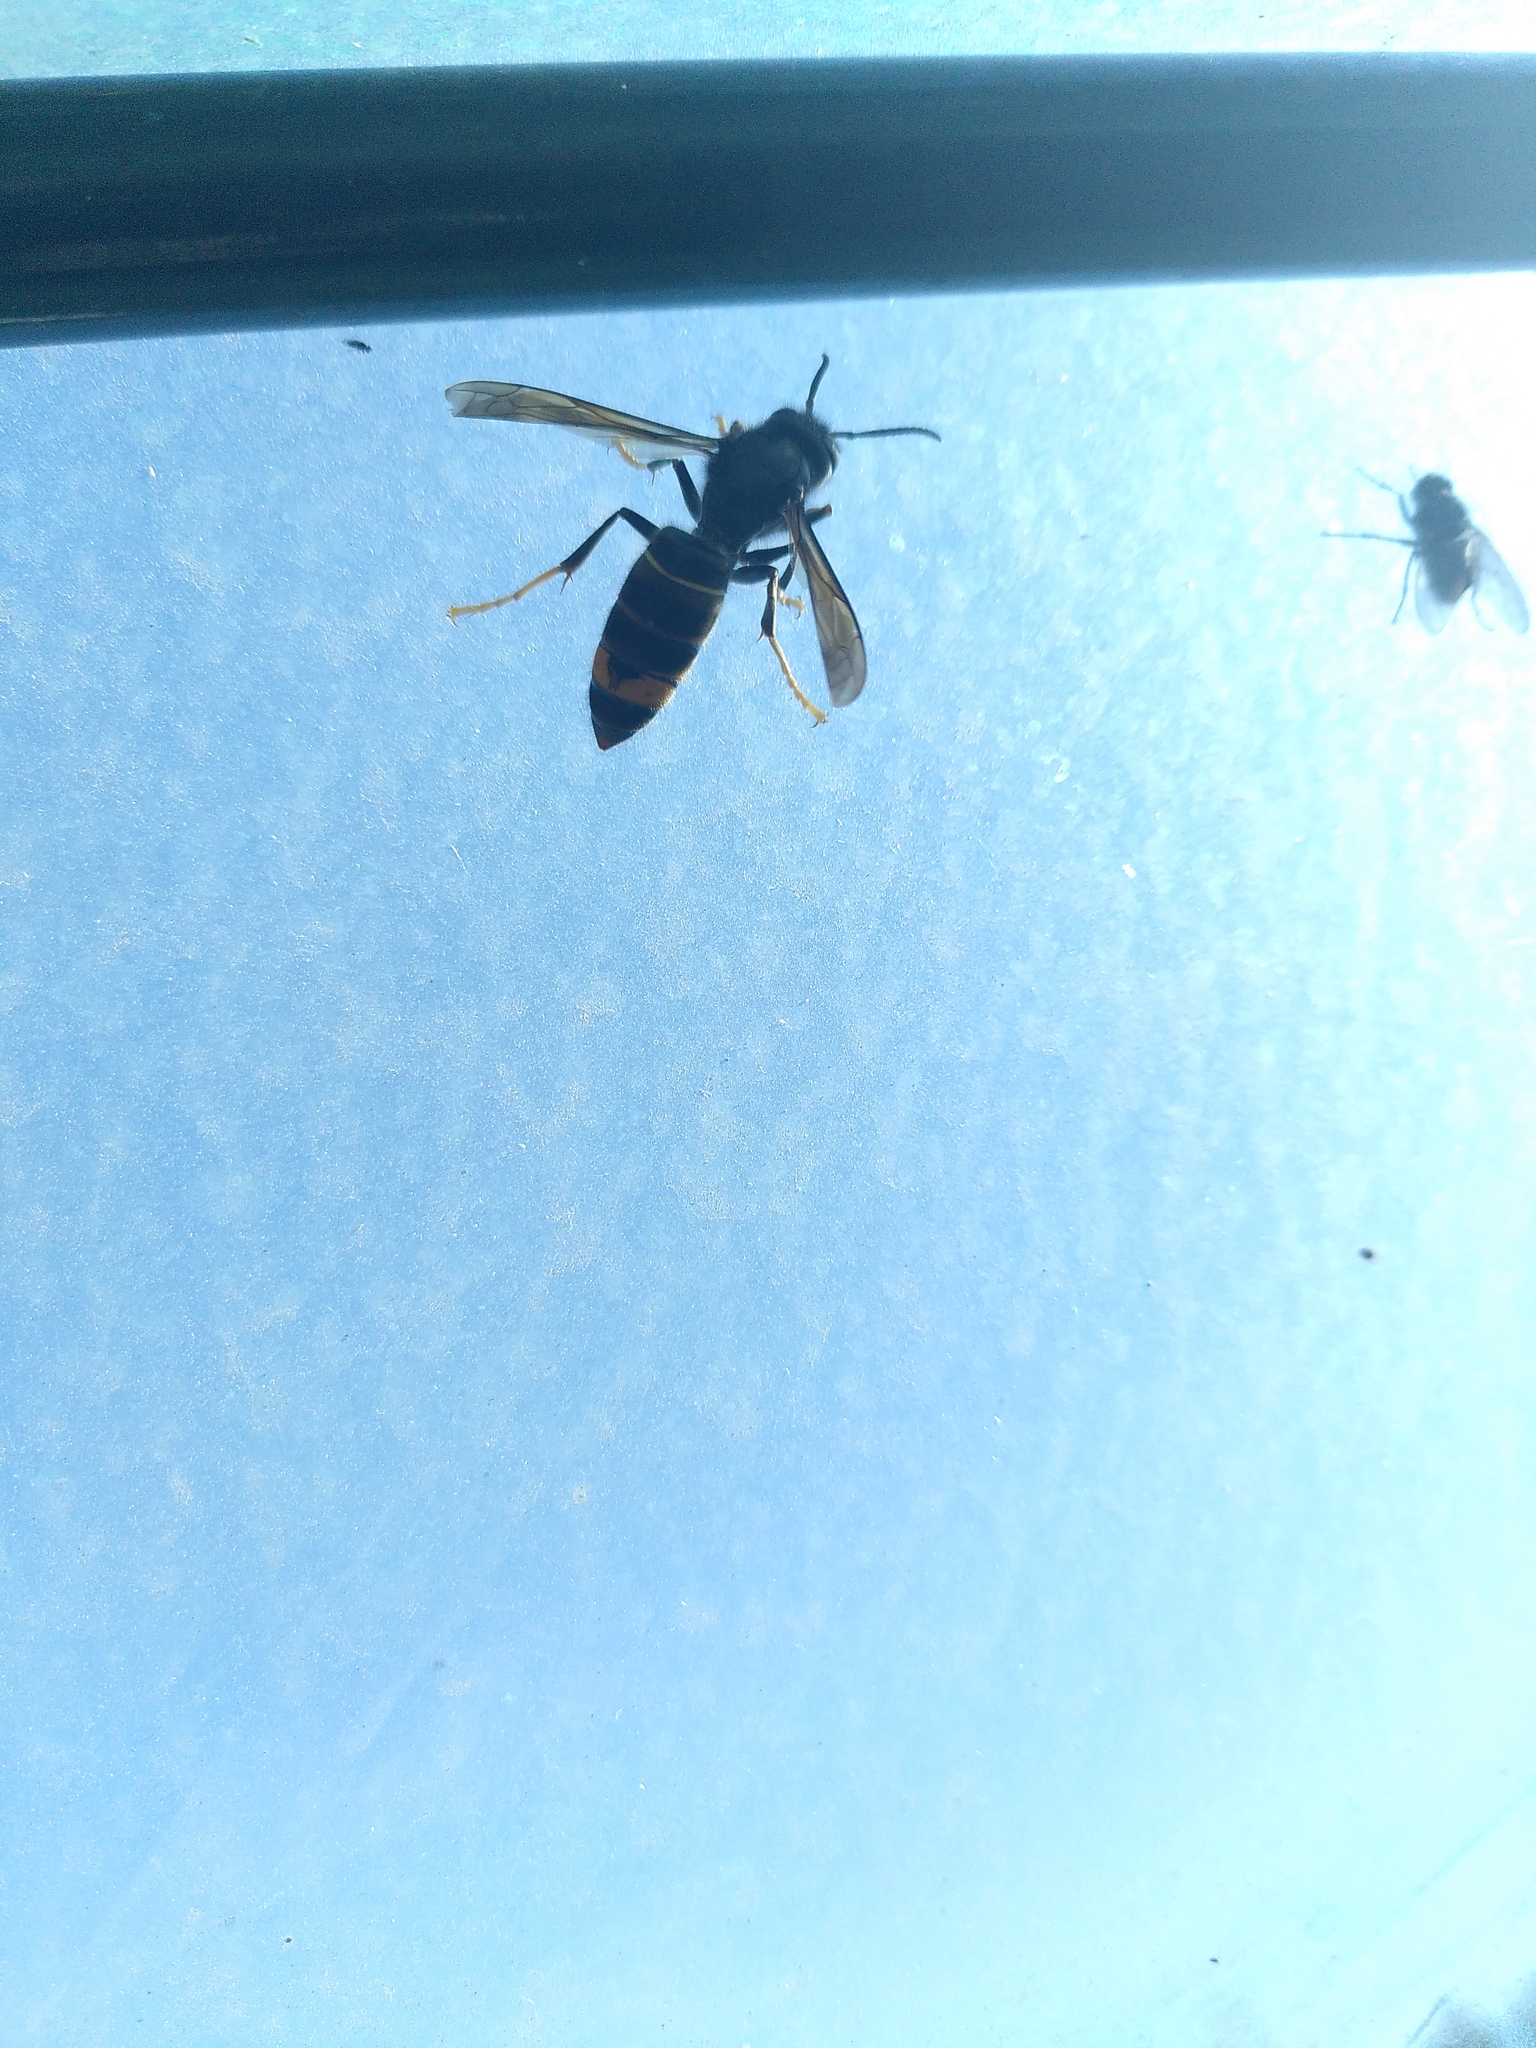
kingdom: Animalia
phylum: Arthropoda
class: Insecta
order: Hymenoptera
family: Vespidae
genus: Vespa
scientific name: Vespa velutina
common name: Asian hornet
